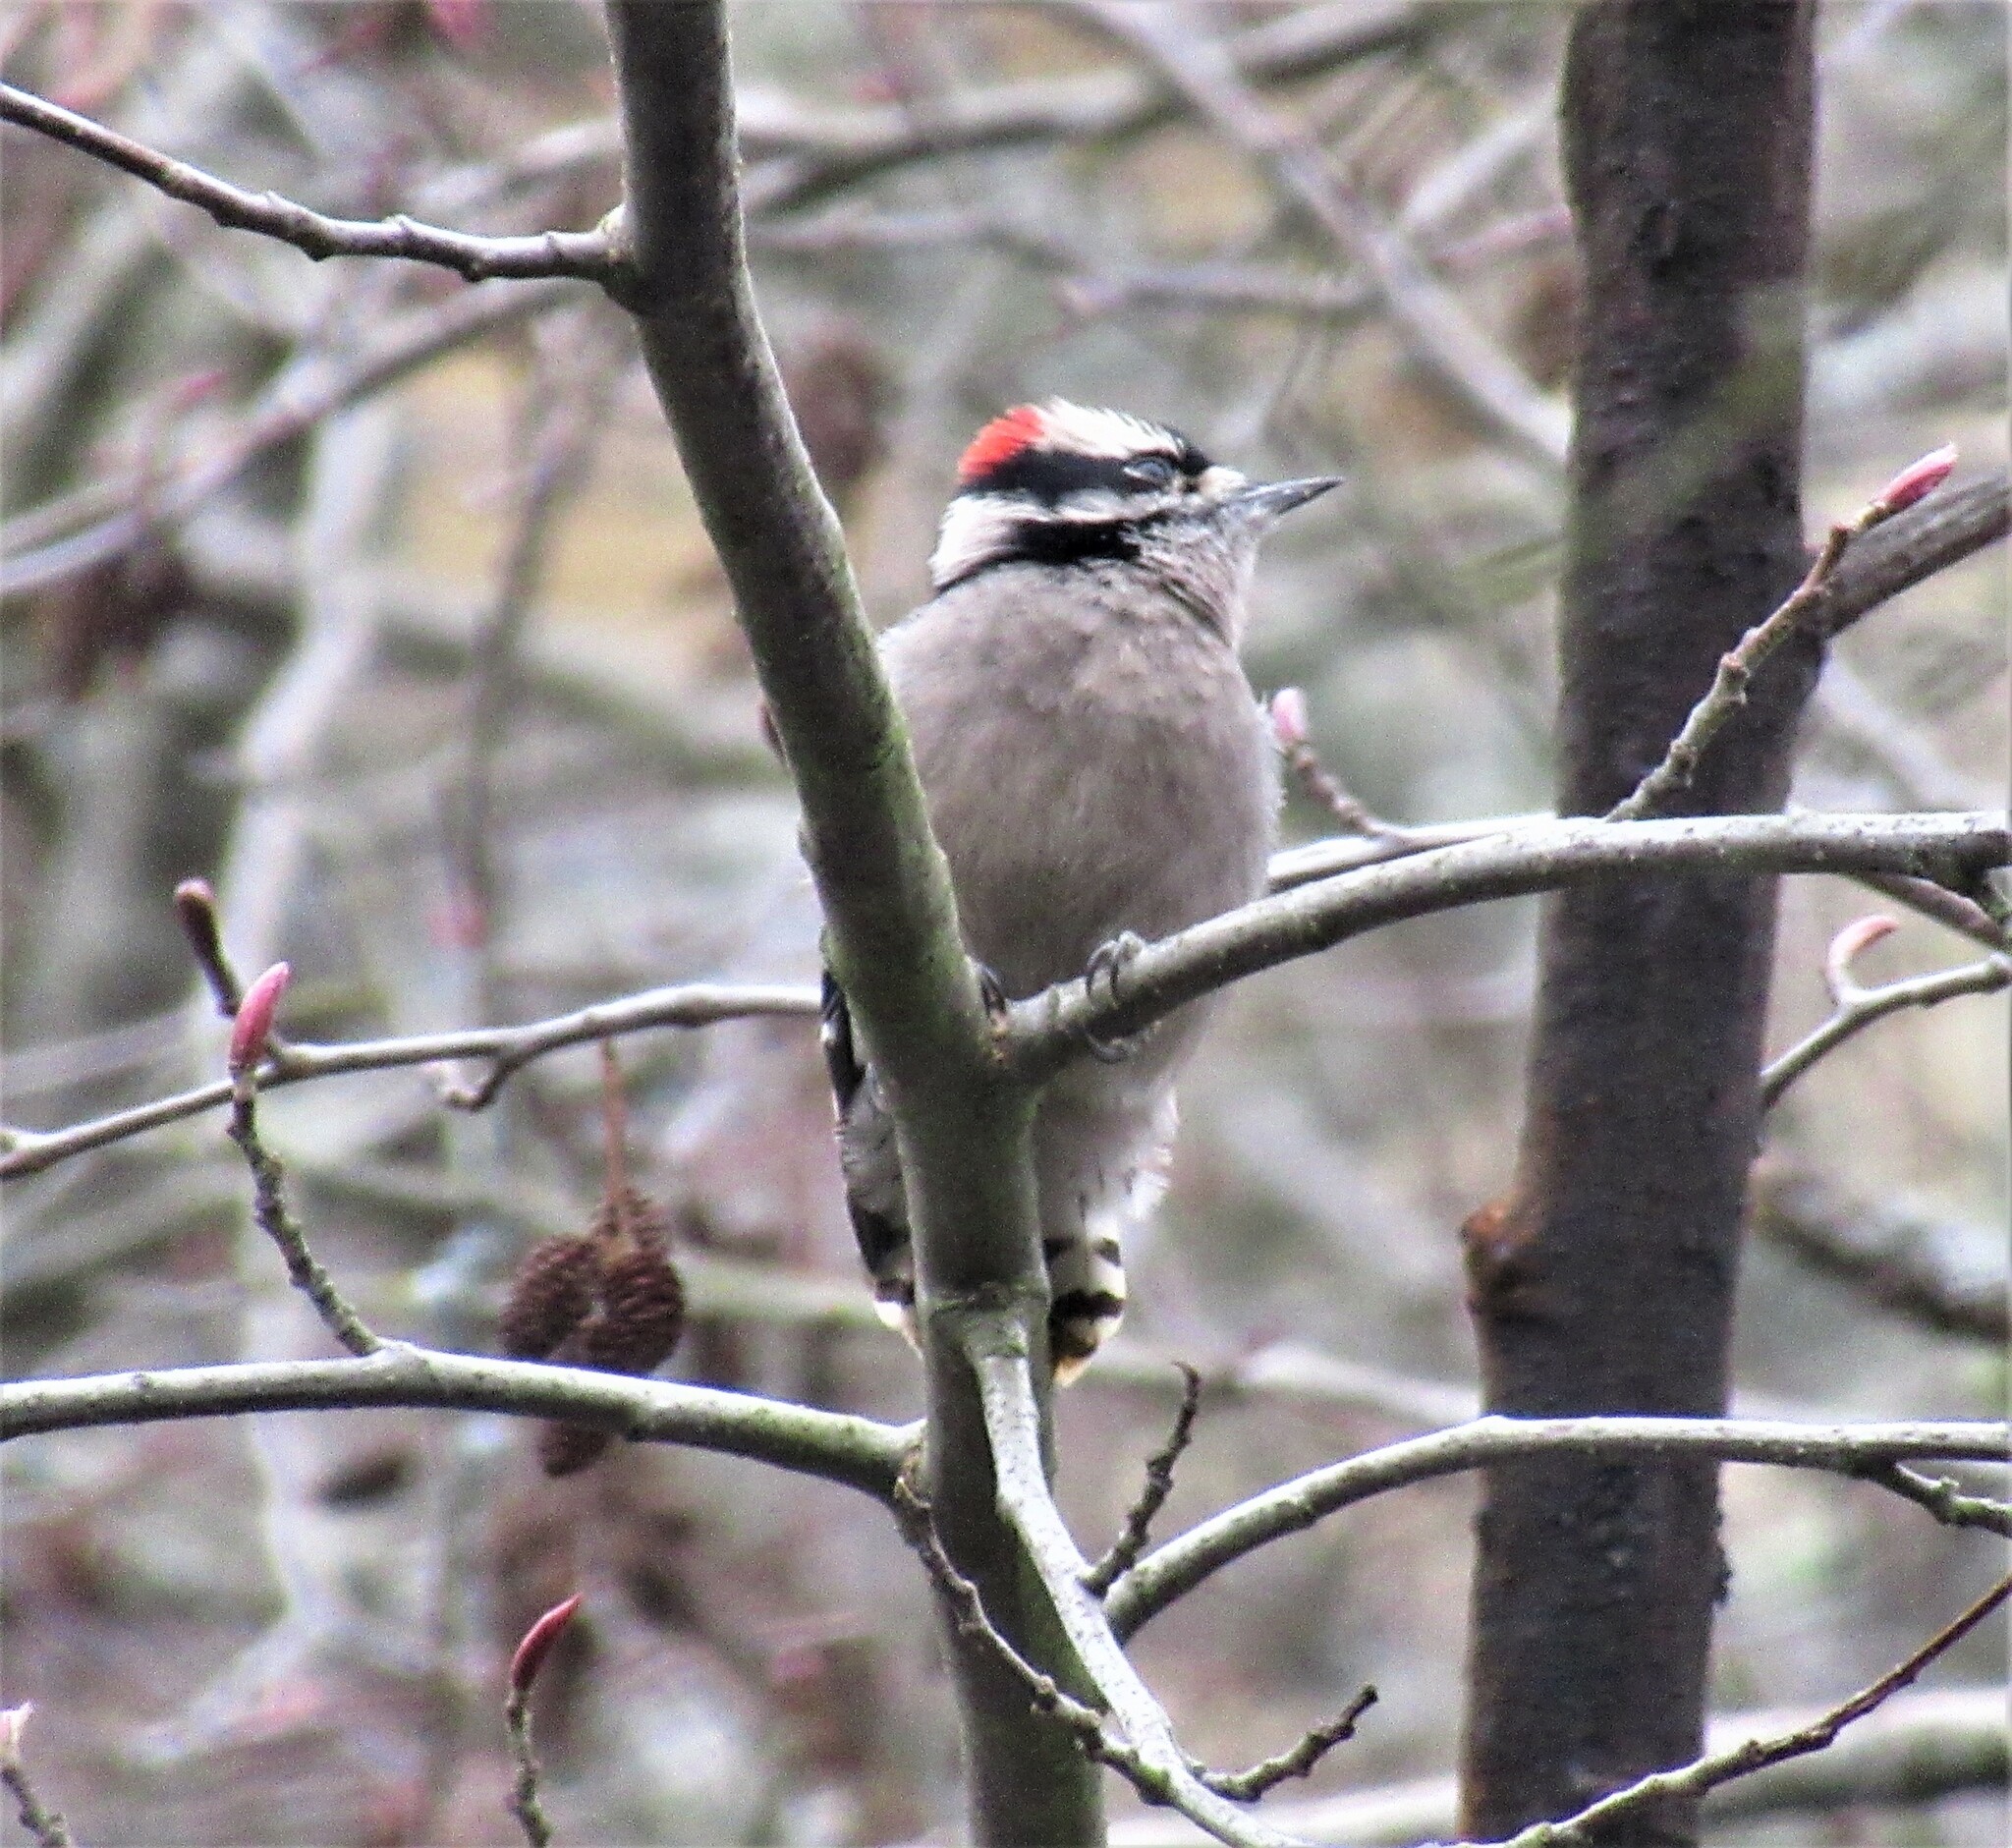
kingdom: Animalia
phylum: Chordata
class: Aves
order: Piciformes
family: Picidae
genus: Dryobates
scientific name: Dryobates pubescens
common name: Downy woodpecker
